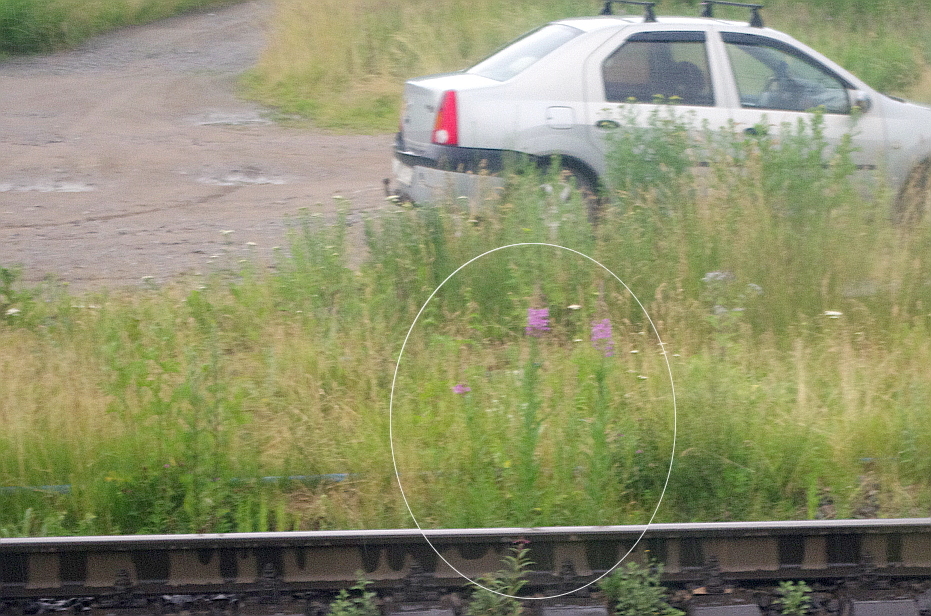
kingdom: Plantae
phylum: Tracheophyta
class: Magnoliopsida
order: Myrtales
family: Onagraceae
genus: Chamaenerion
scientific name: Chamaenerion angustifolium
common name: Fireweed
